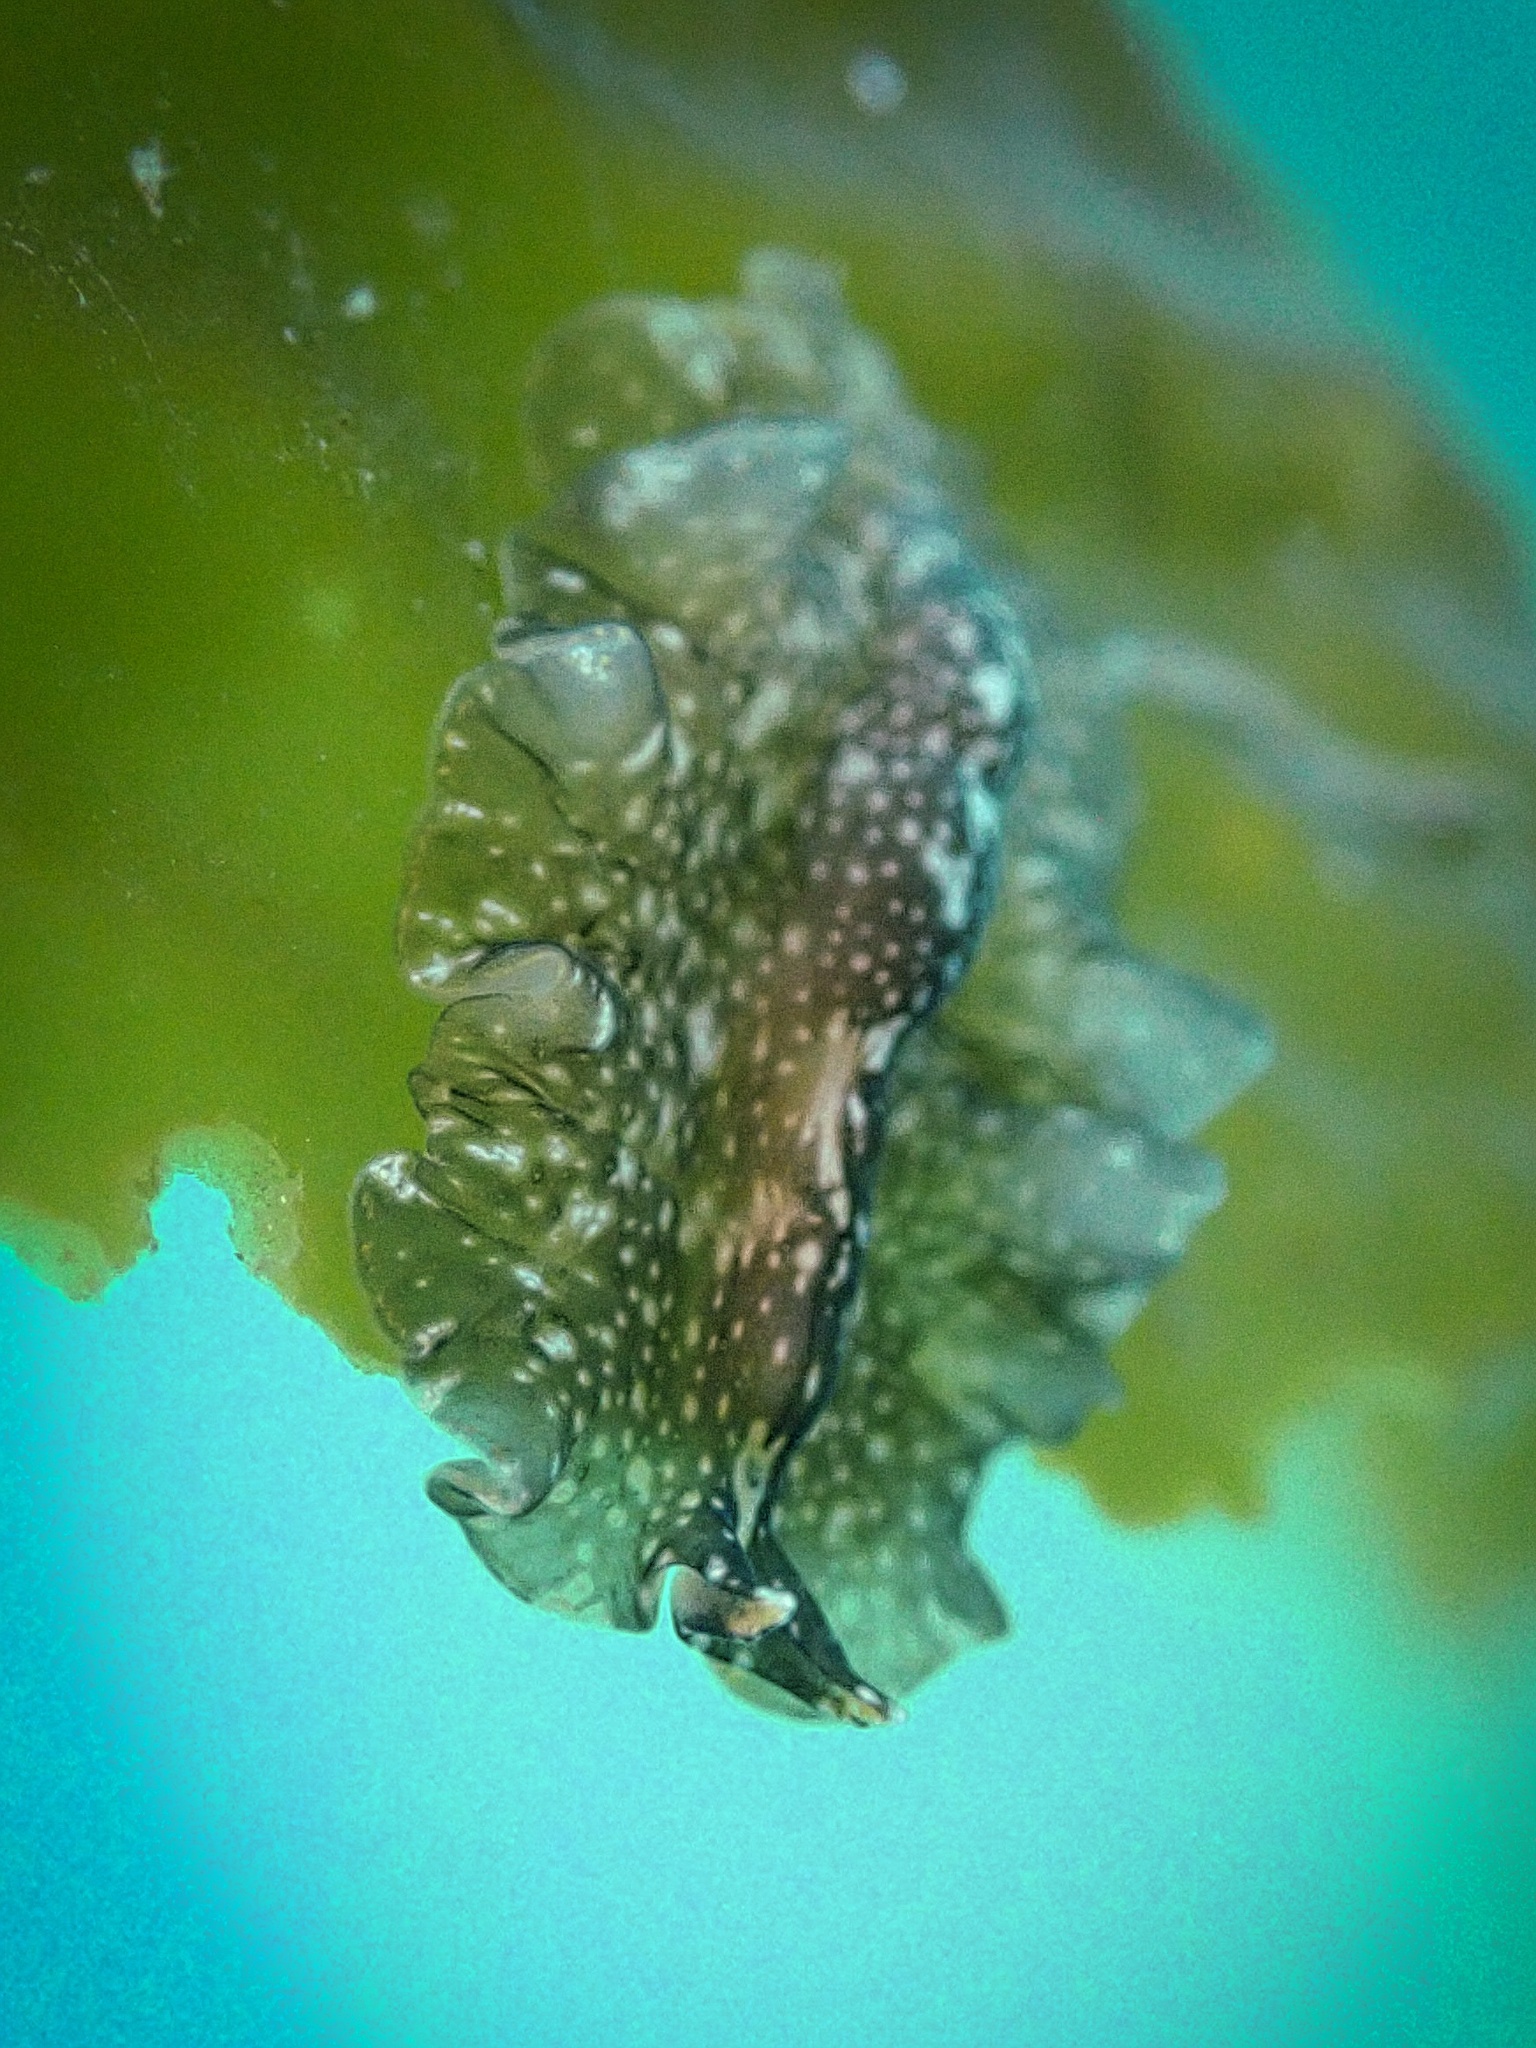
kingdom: Animalia
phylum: Platyhelminthes
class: Turbellaria
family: Pseudocerotidae
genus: Pseudoceros
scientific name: Pseudoceros mexicanus
